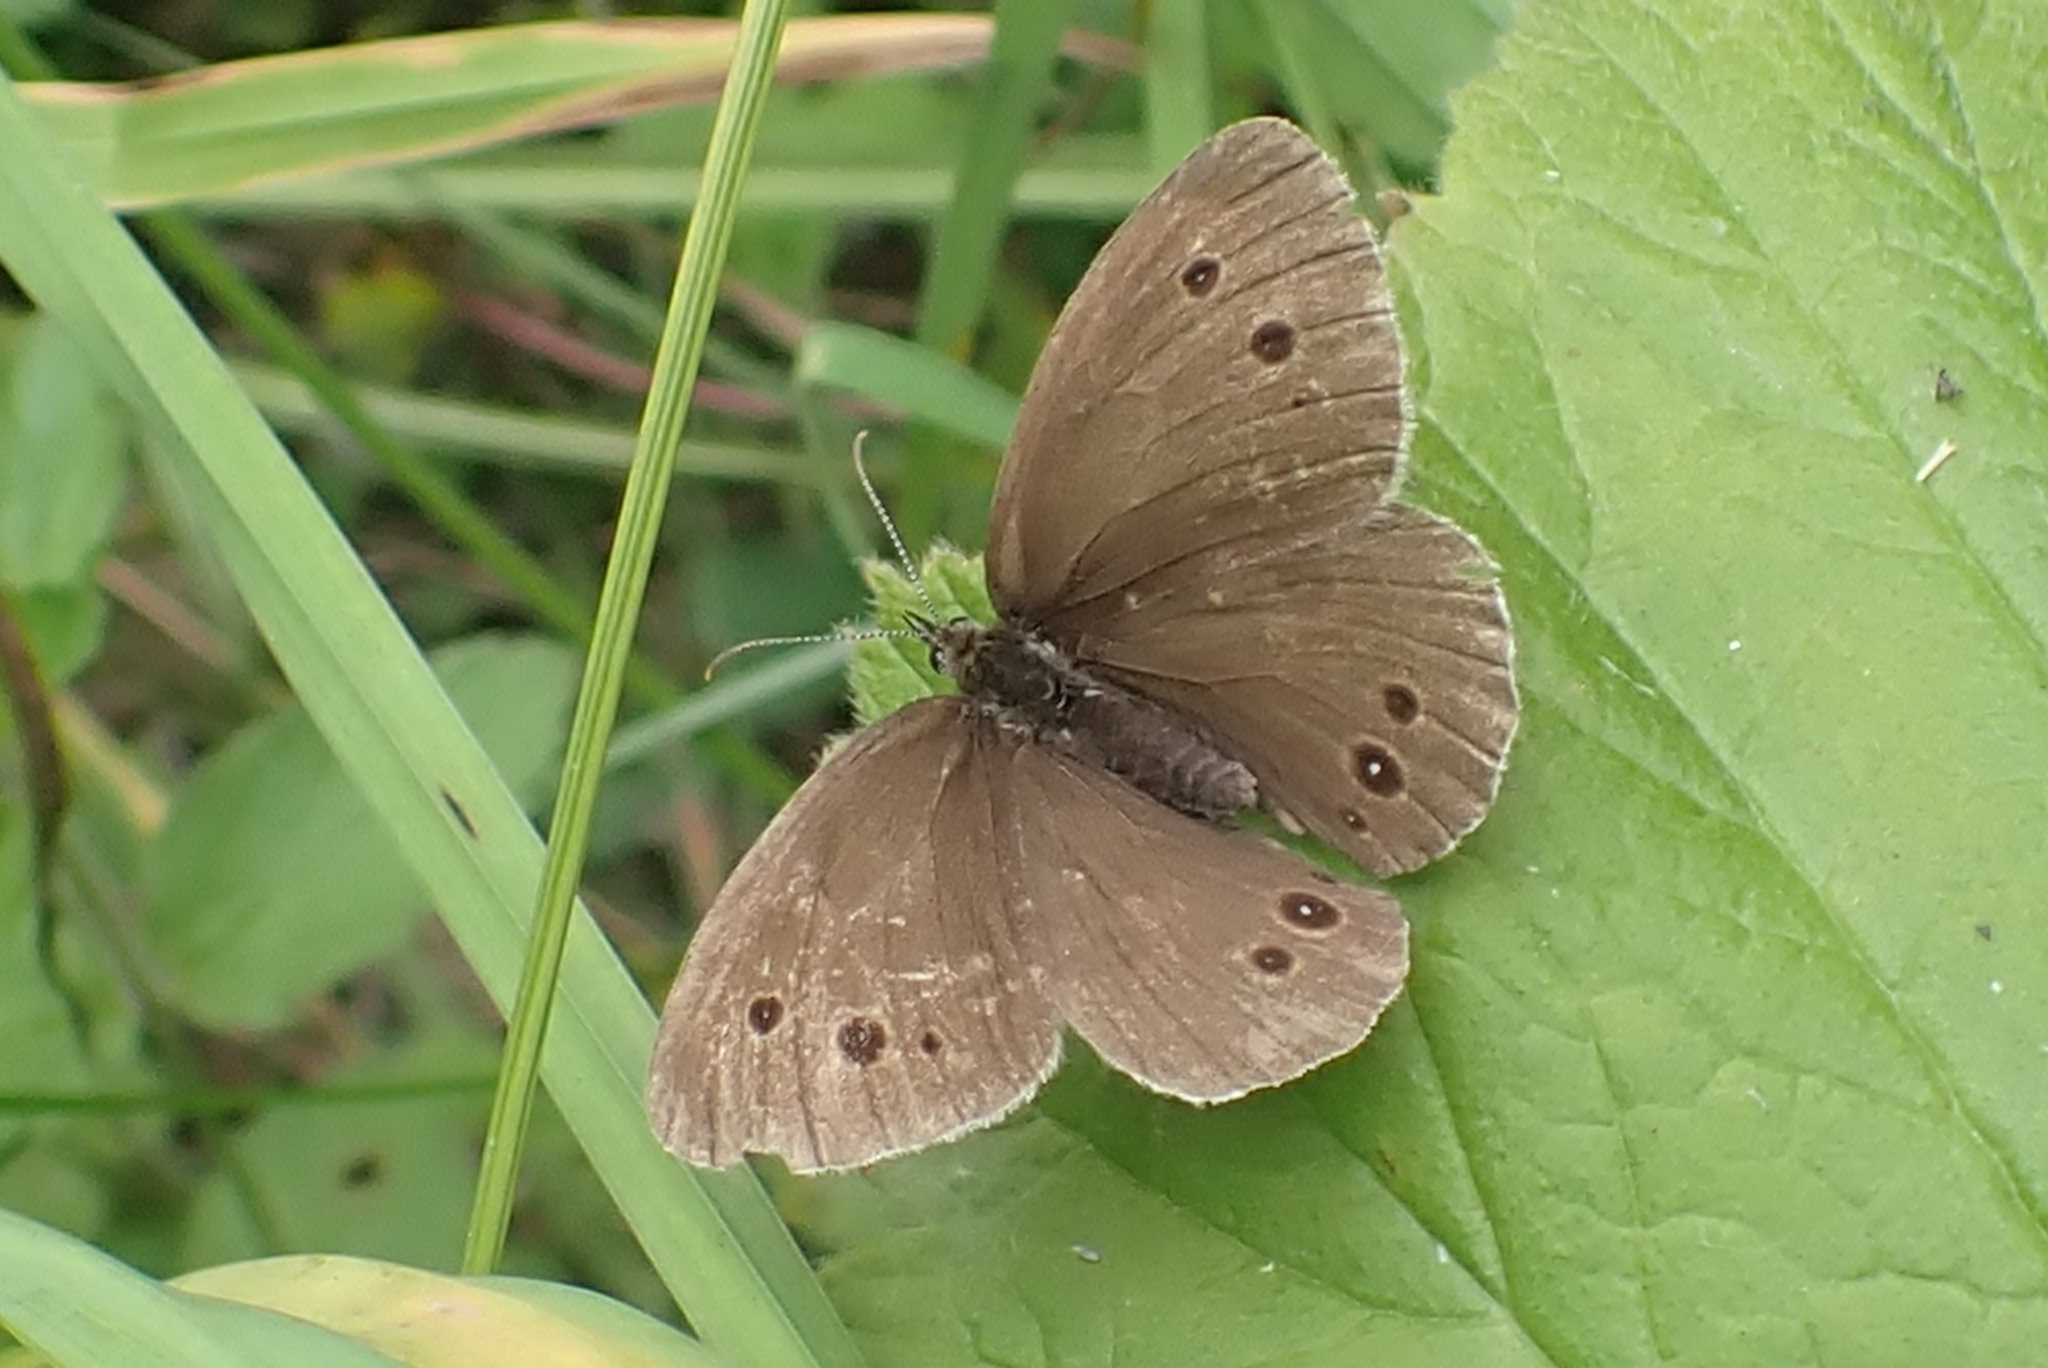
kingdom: Animalia
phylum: Arthropoda
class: Insecta
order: Lepidoptera
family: Nymphalidae
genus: Aphantopus
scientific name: Aphantopus hyperantus
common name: Ringlet
